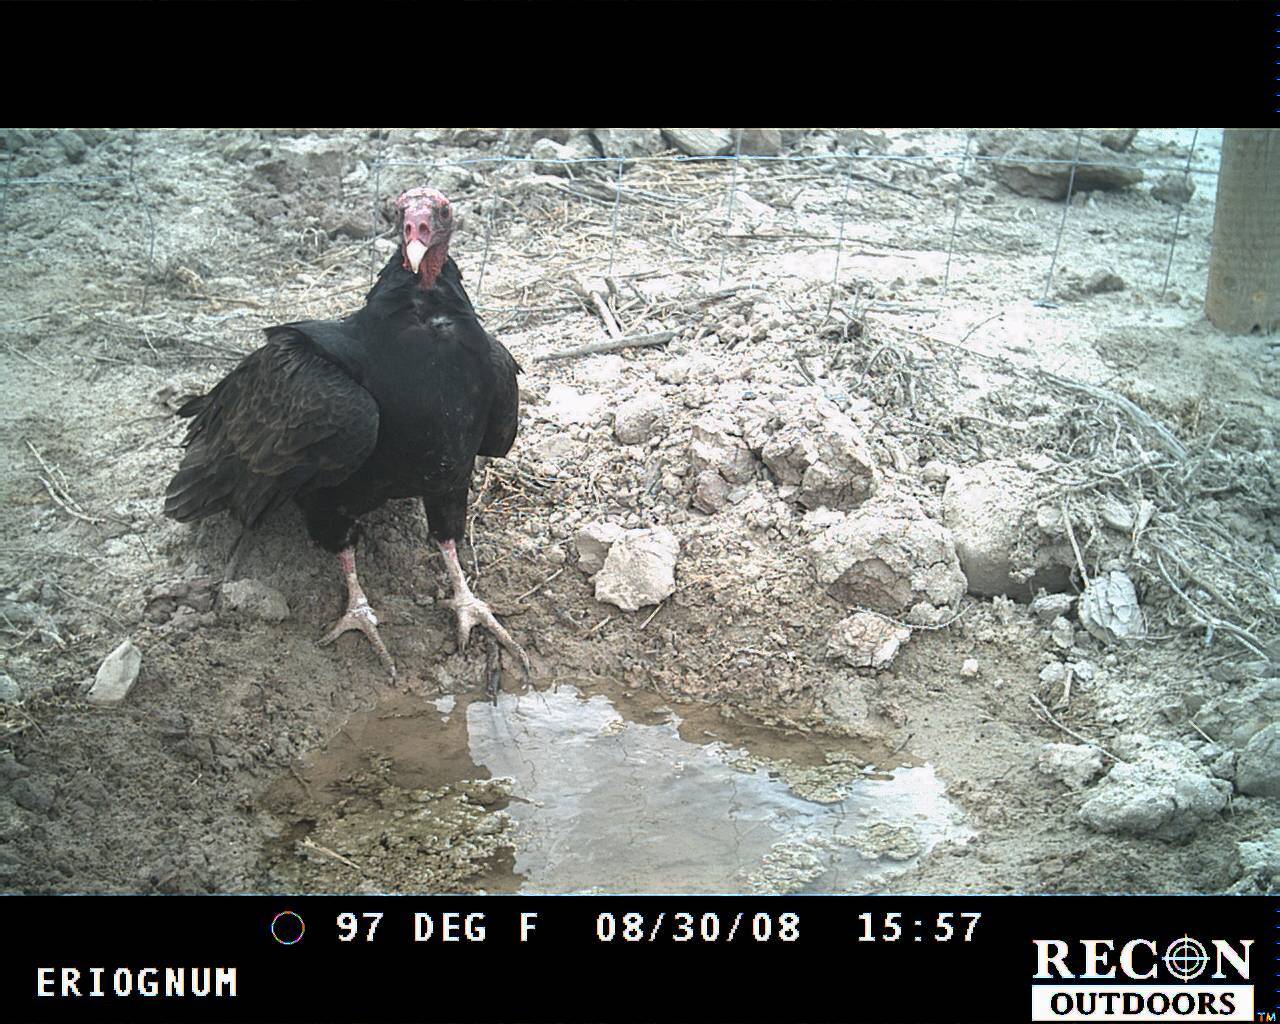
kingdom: Animalia
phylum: Chordata
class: Aves
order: Accipitriformes
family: Cathartidae
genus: Cathartes
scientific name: Cathartes aura
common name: Turkey vulture
